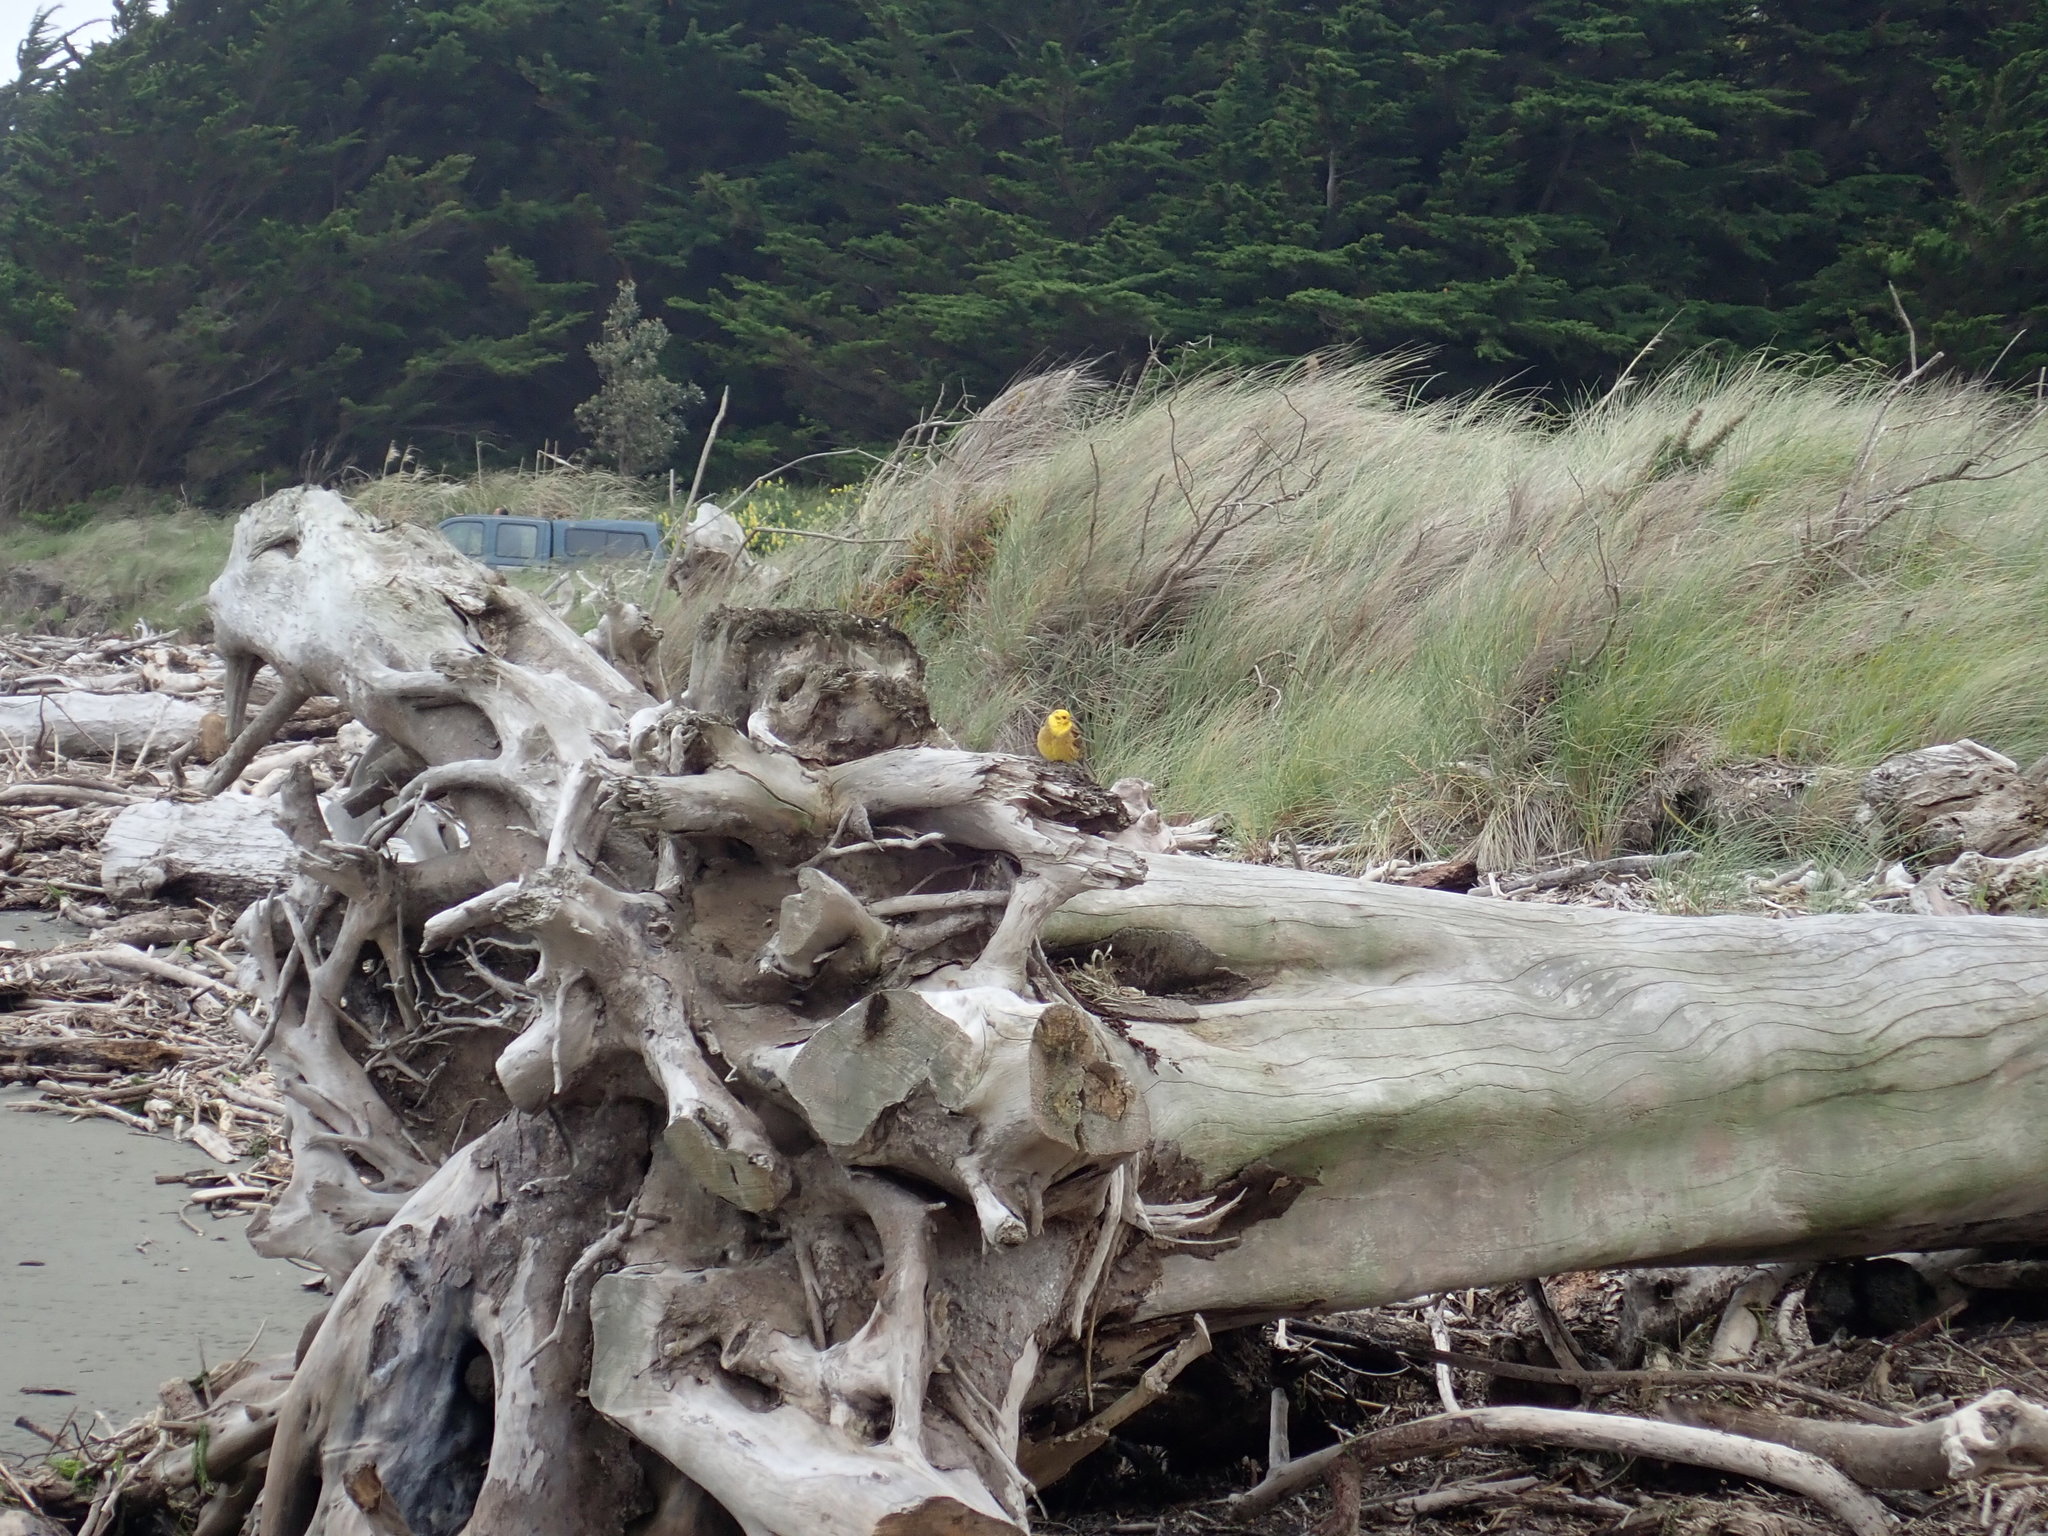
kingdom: Animalia
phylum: Chordata
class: Aves
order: Passeriformes
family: Emberizidae
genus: Emberiza
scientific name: Emberiza citrinella
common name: Yellowhammer
